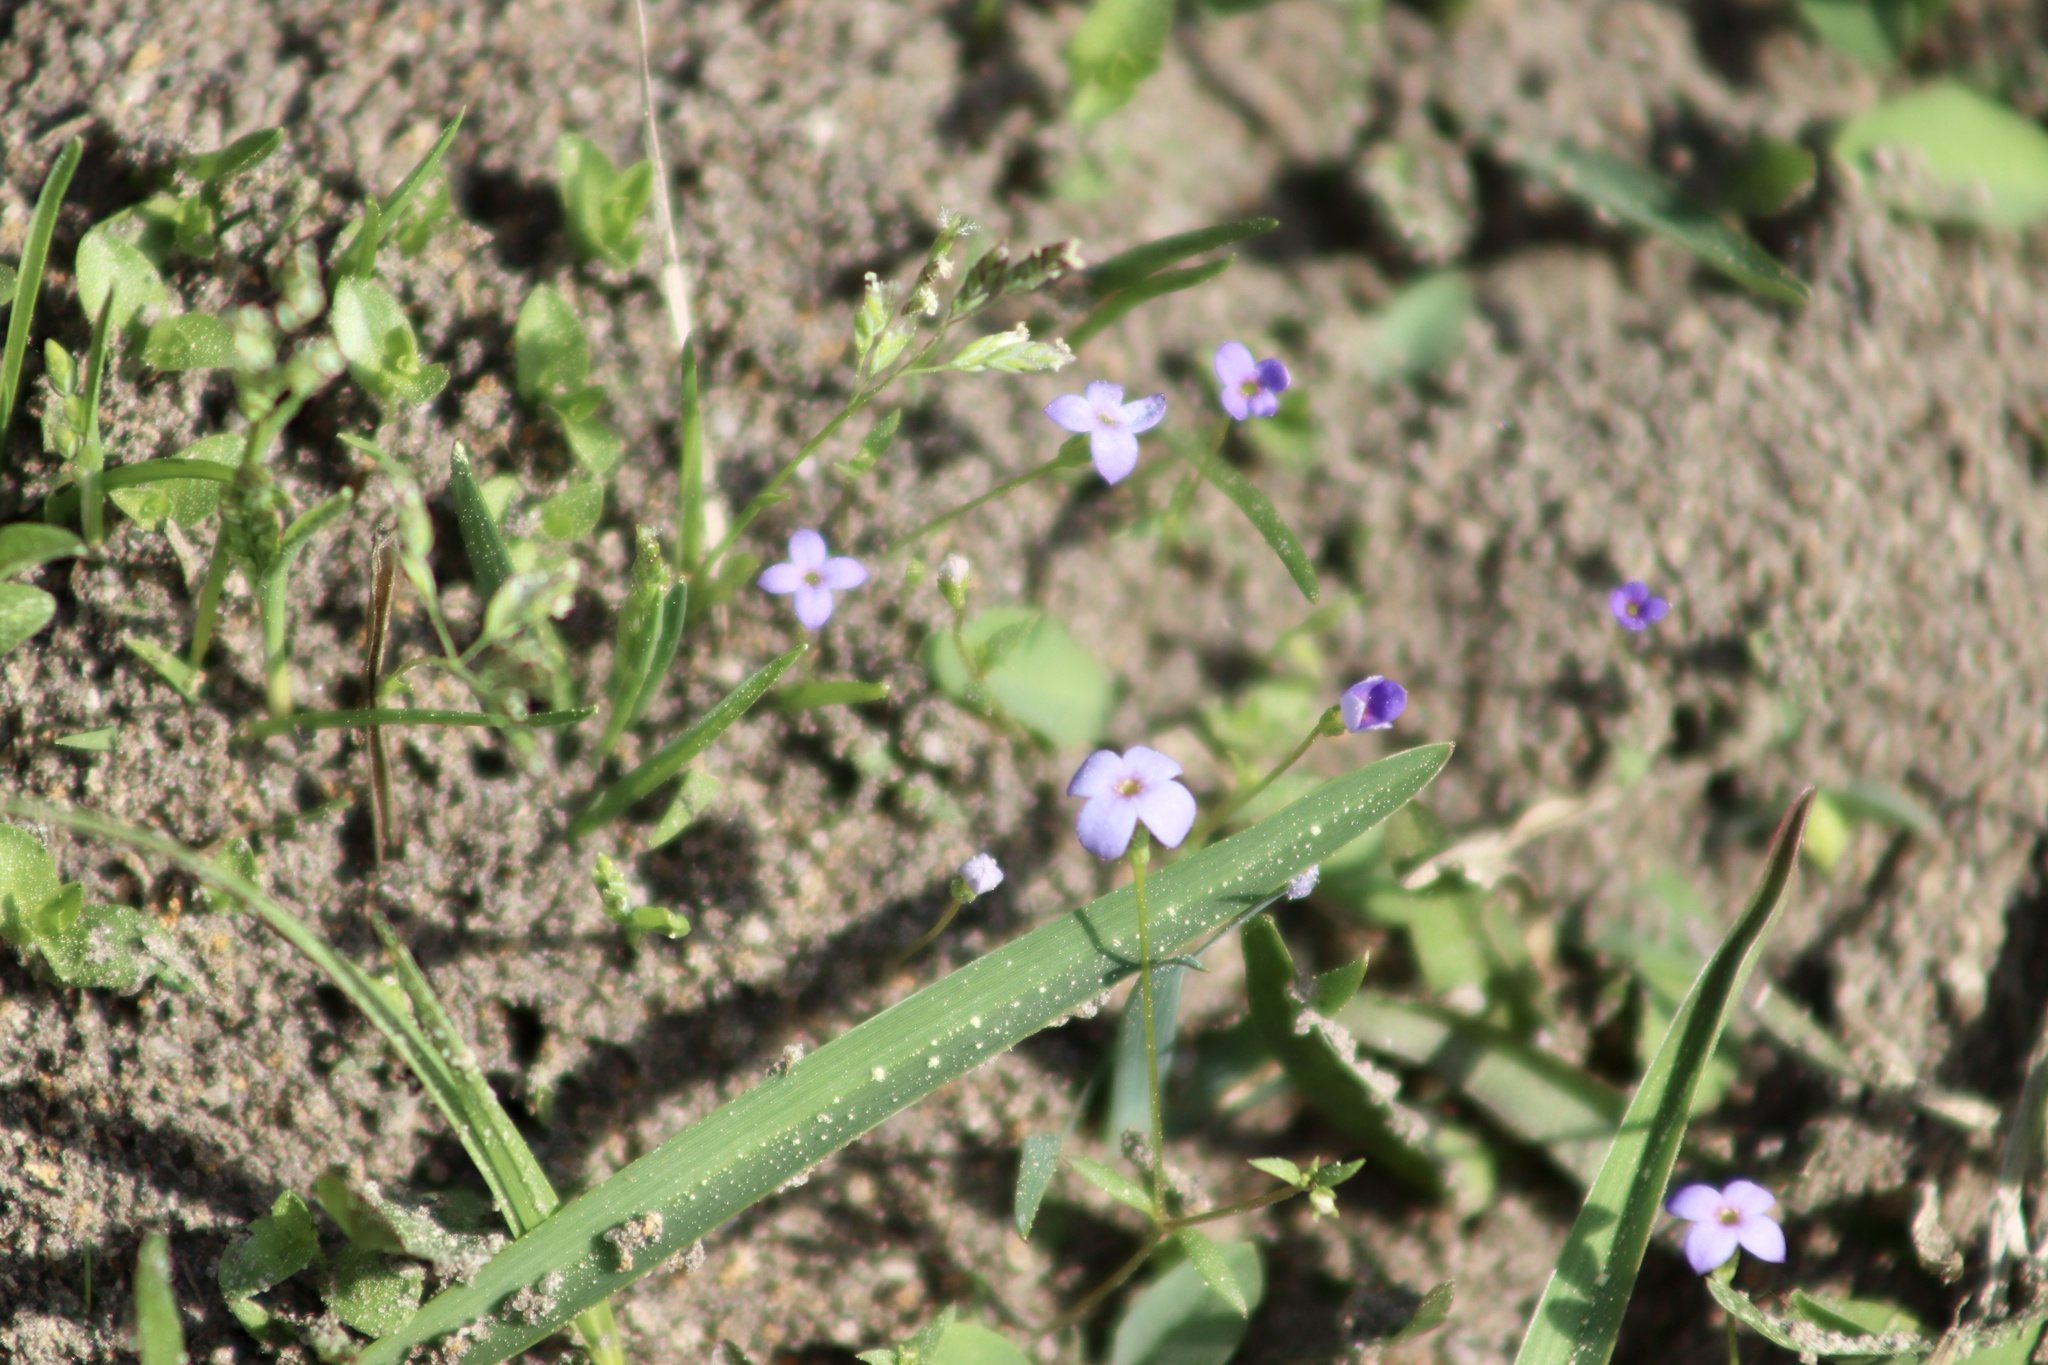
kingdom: Plantae
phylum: Tracheophyta
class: Magnoliopsida
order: Gentianales
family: Rubiaceae
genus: Houstonia
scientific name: Houstonia pusilla
